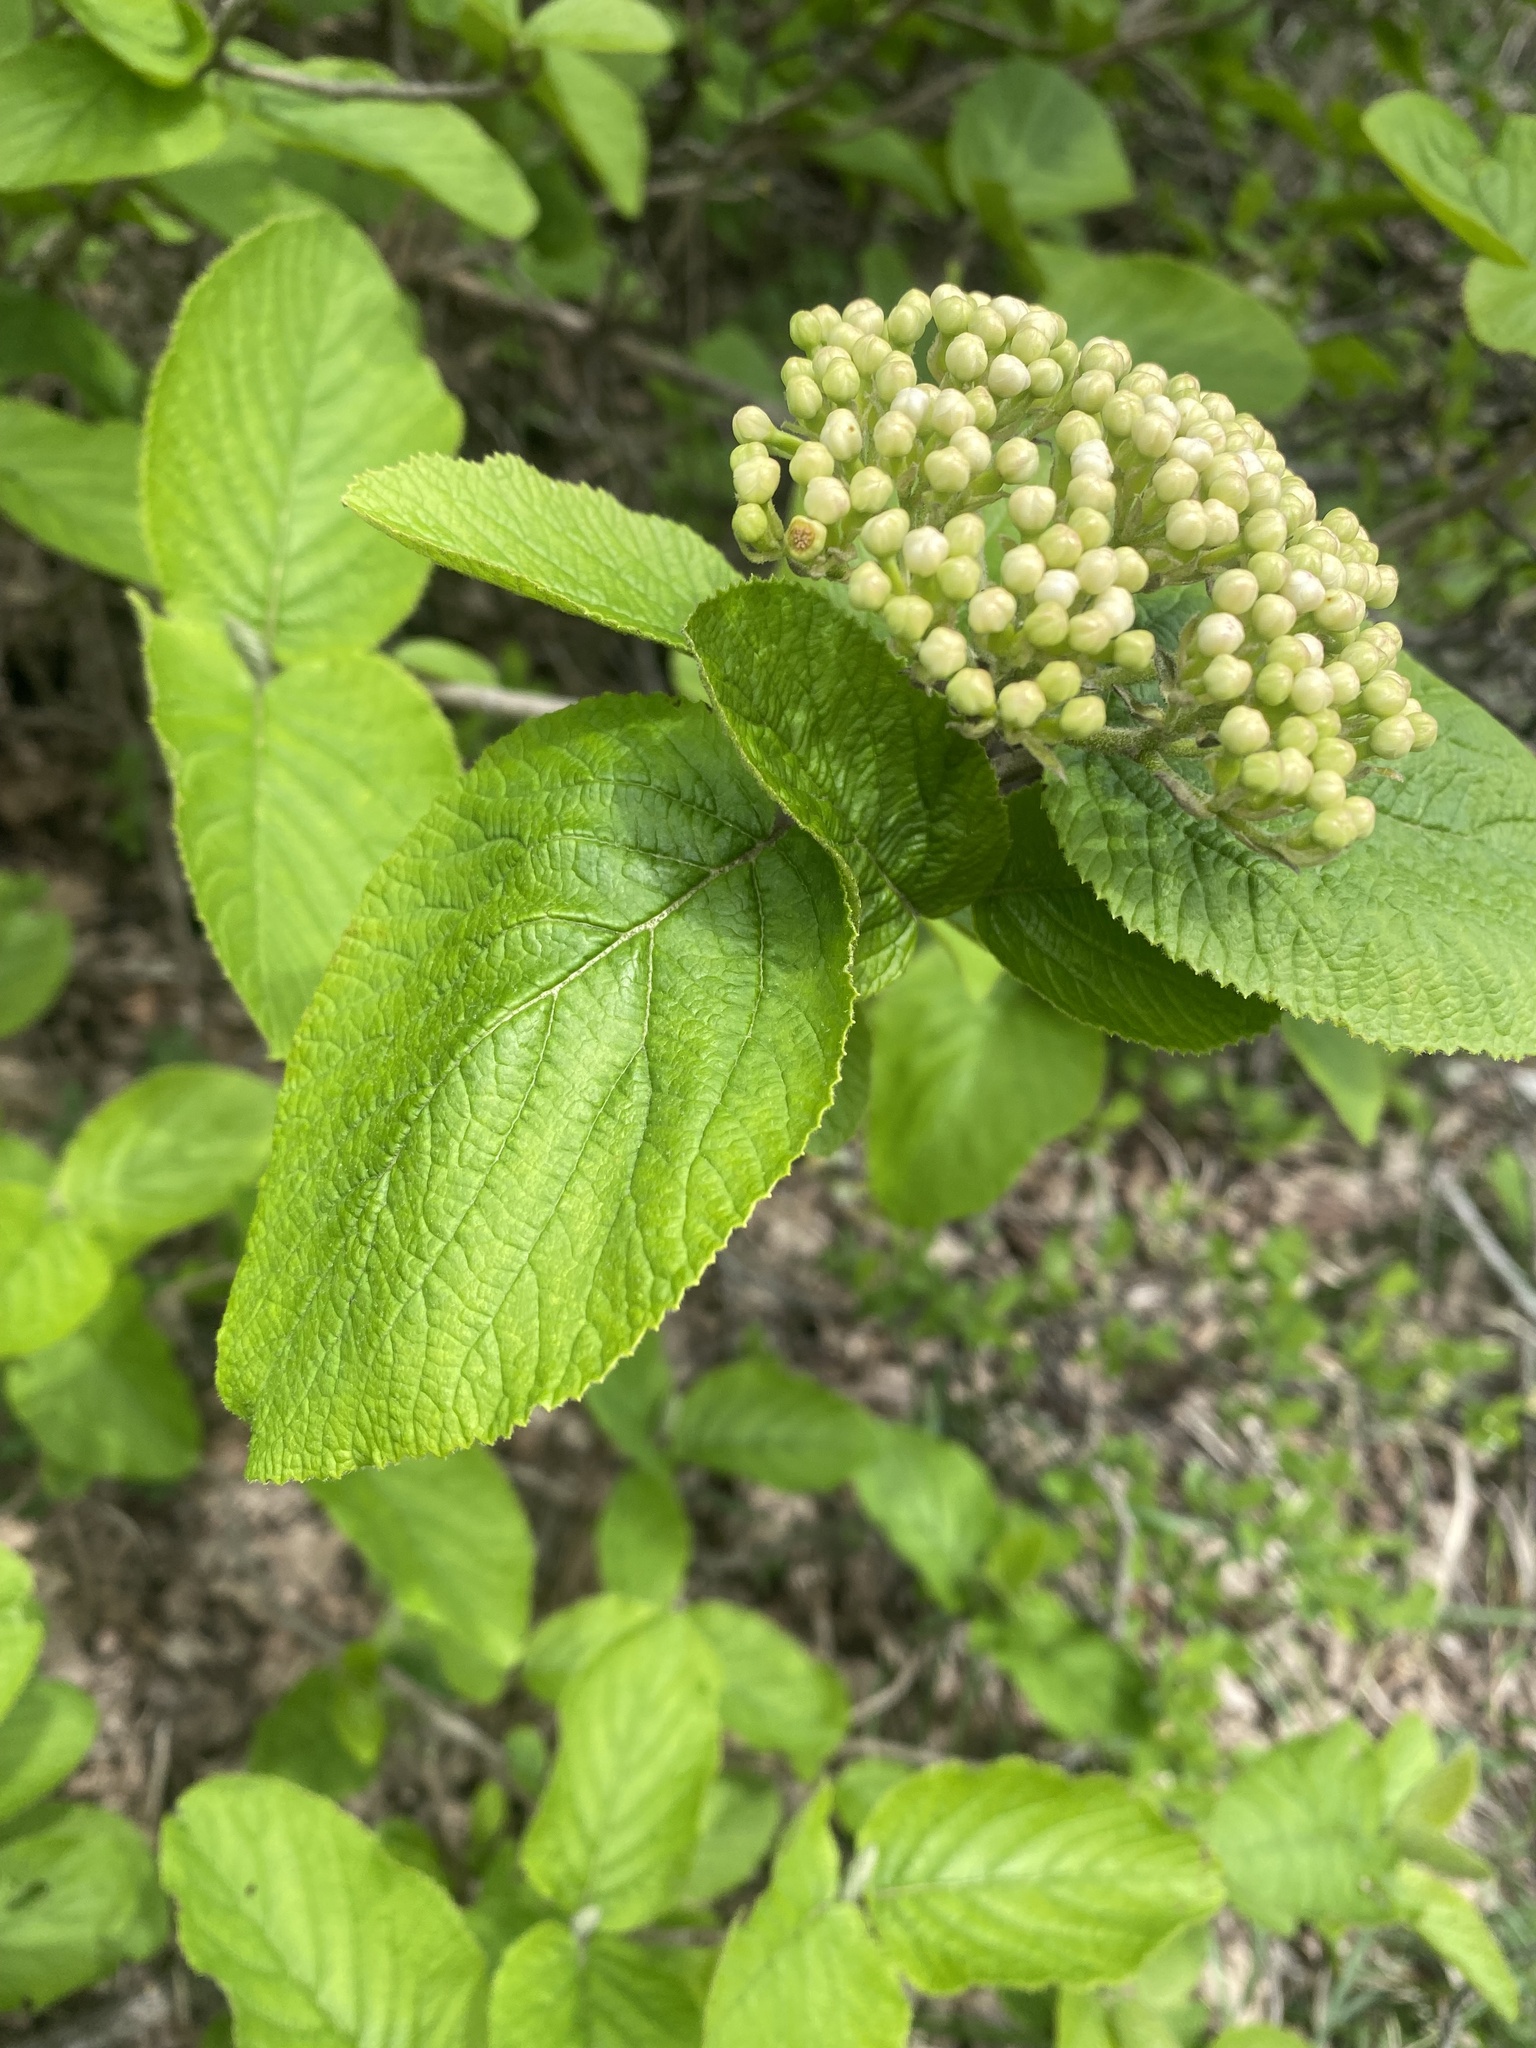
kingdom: Plantae
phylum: Tracheophyta
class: Magnoliopsida
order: Dipsacales
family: Viburnaceae
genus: Viburnum
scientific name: Viburnum lantana
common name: Wayfaring tree
